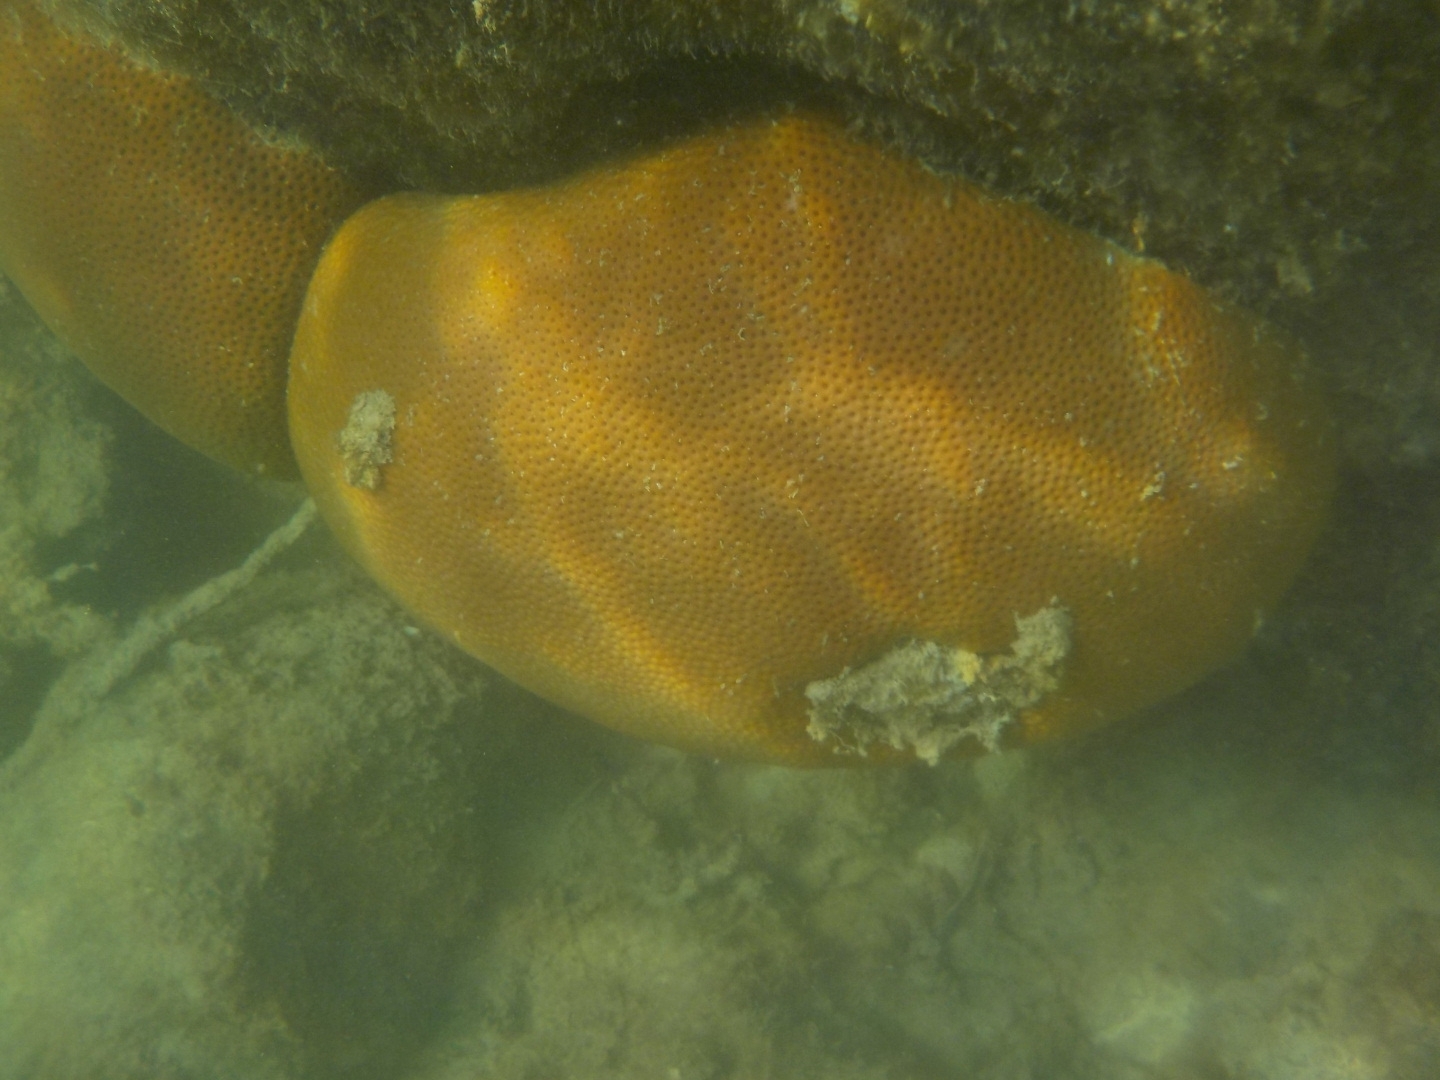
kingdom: Animalia
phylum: Cnidaria
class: Anthozoa
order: Scleractinia
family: Rhizangiidae
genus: Siderastrea
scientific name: Siderastrea siderea
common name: Massive starlet coral
